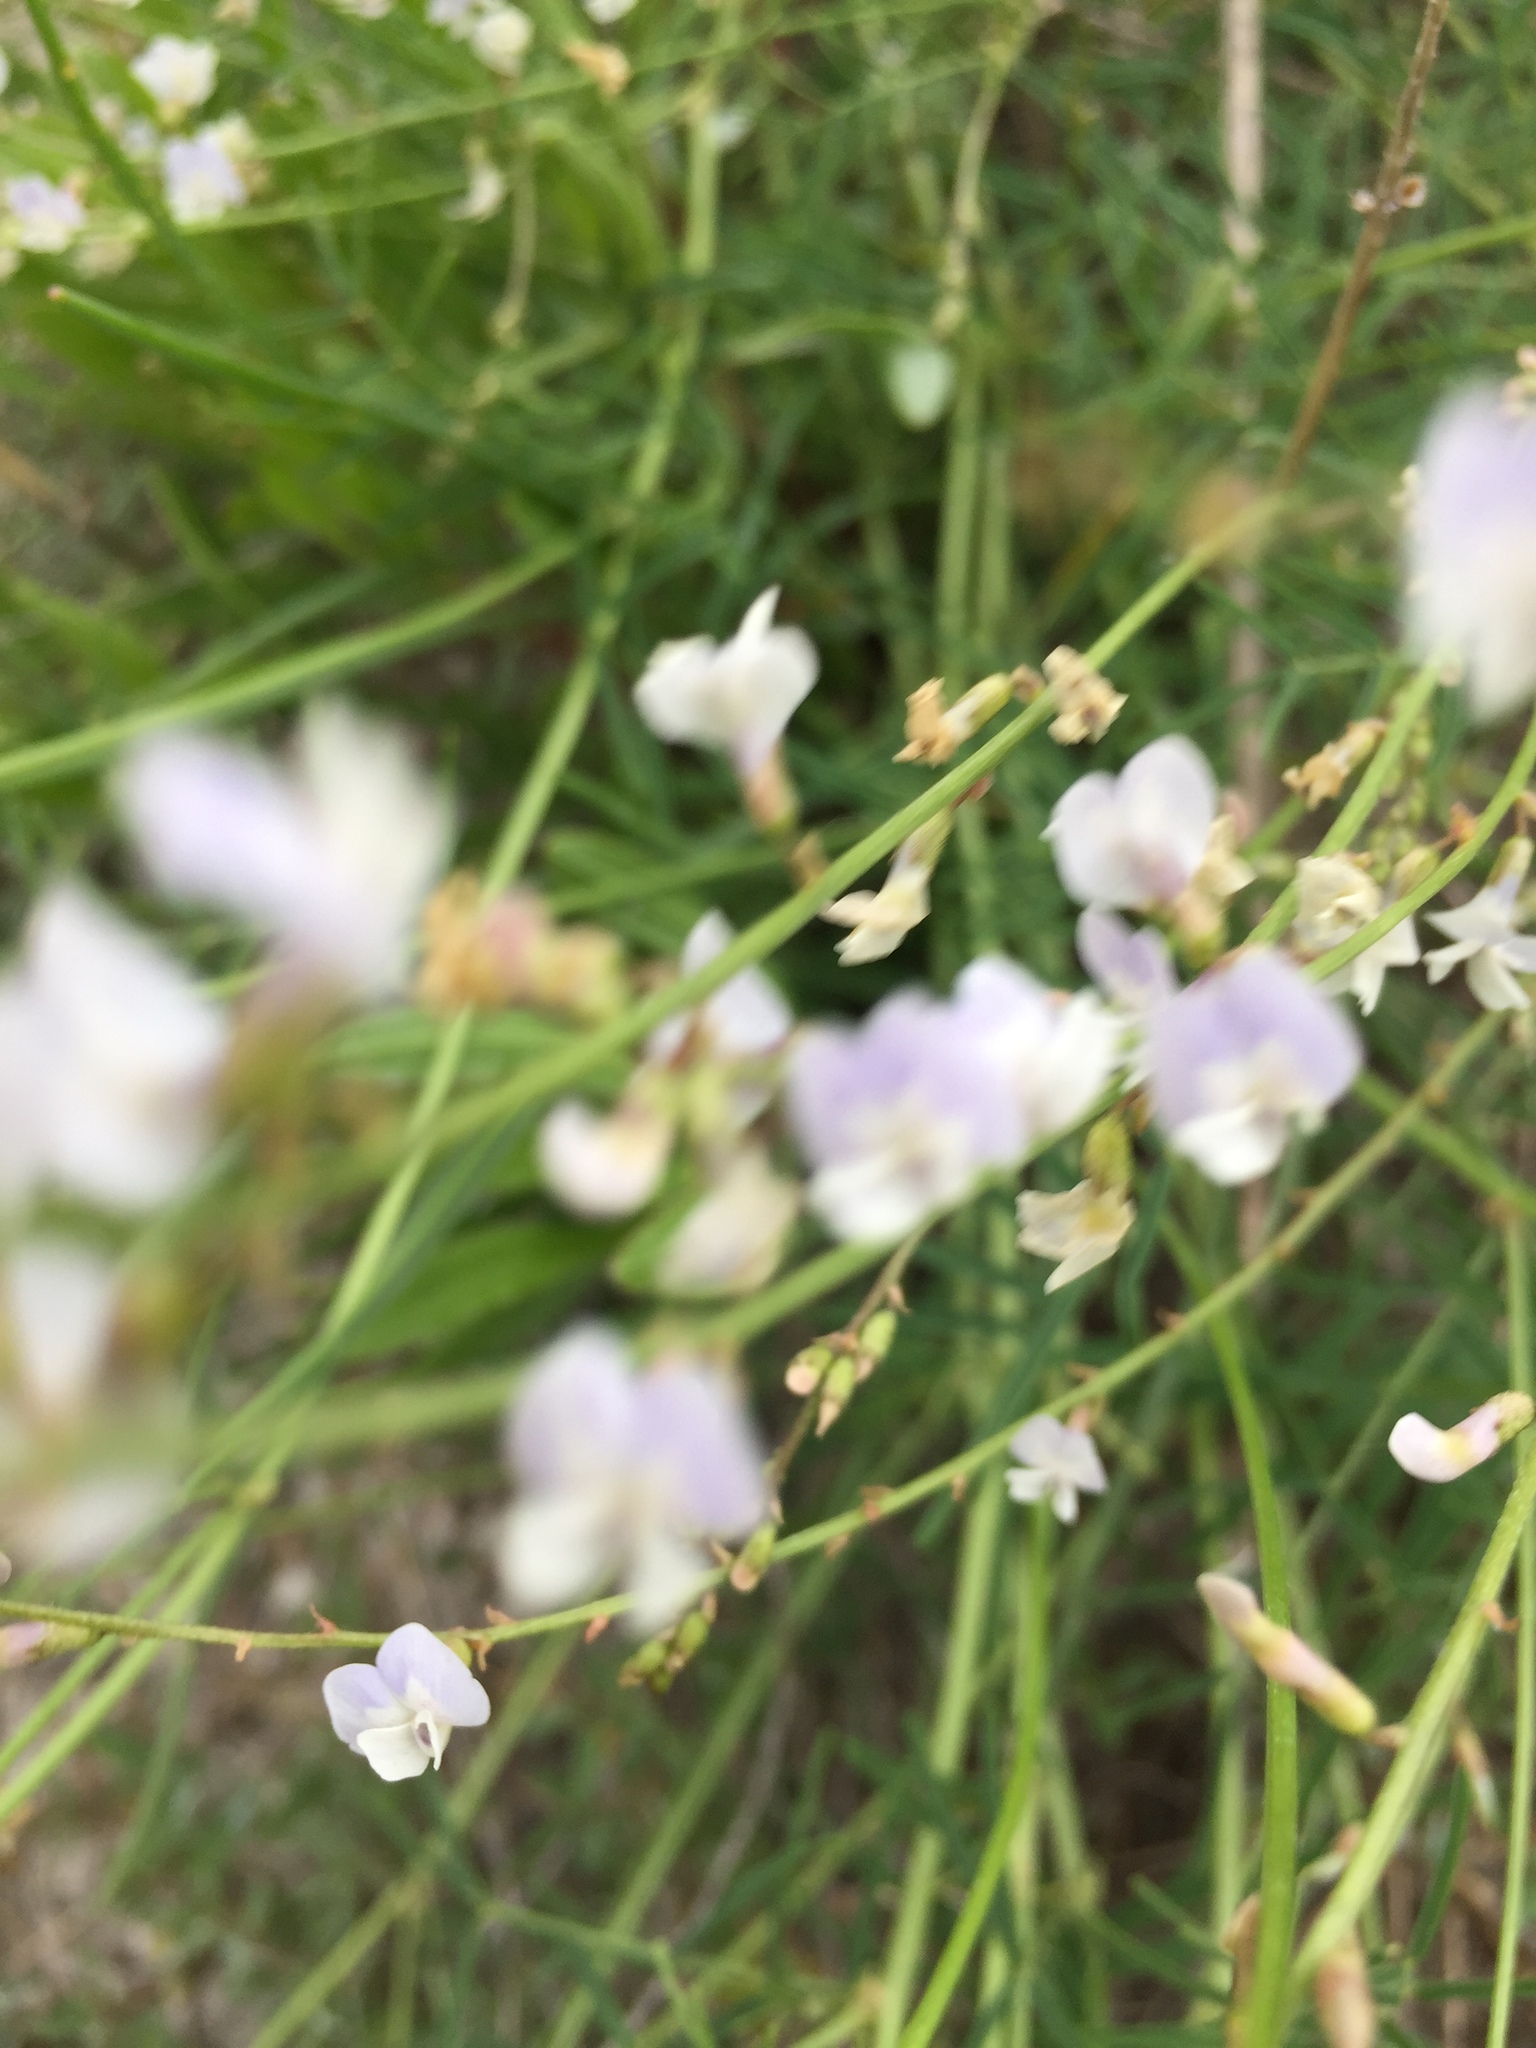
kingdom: Plantae
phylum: Tracheophyta
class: Magnoliopsida
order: Fabales
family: Fabaceae
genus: Astragalus
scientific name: Astragalus austriacus
